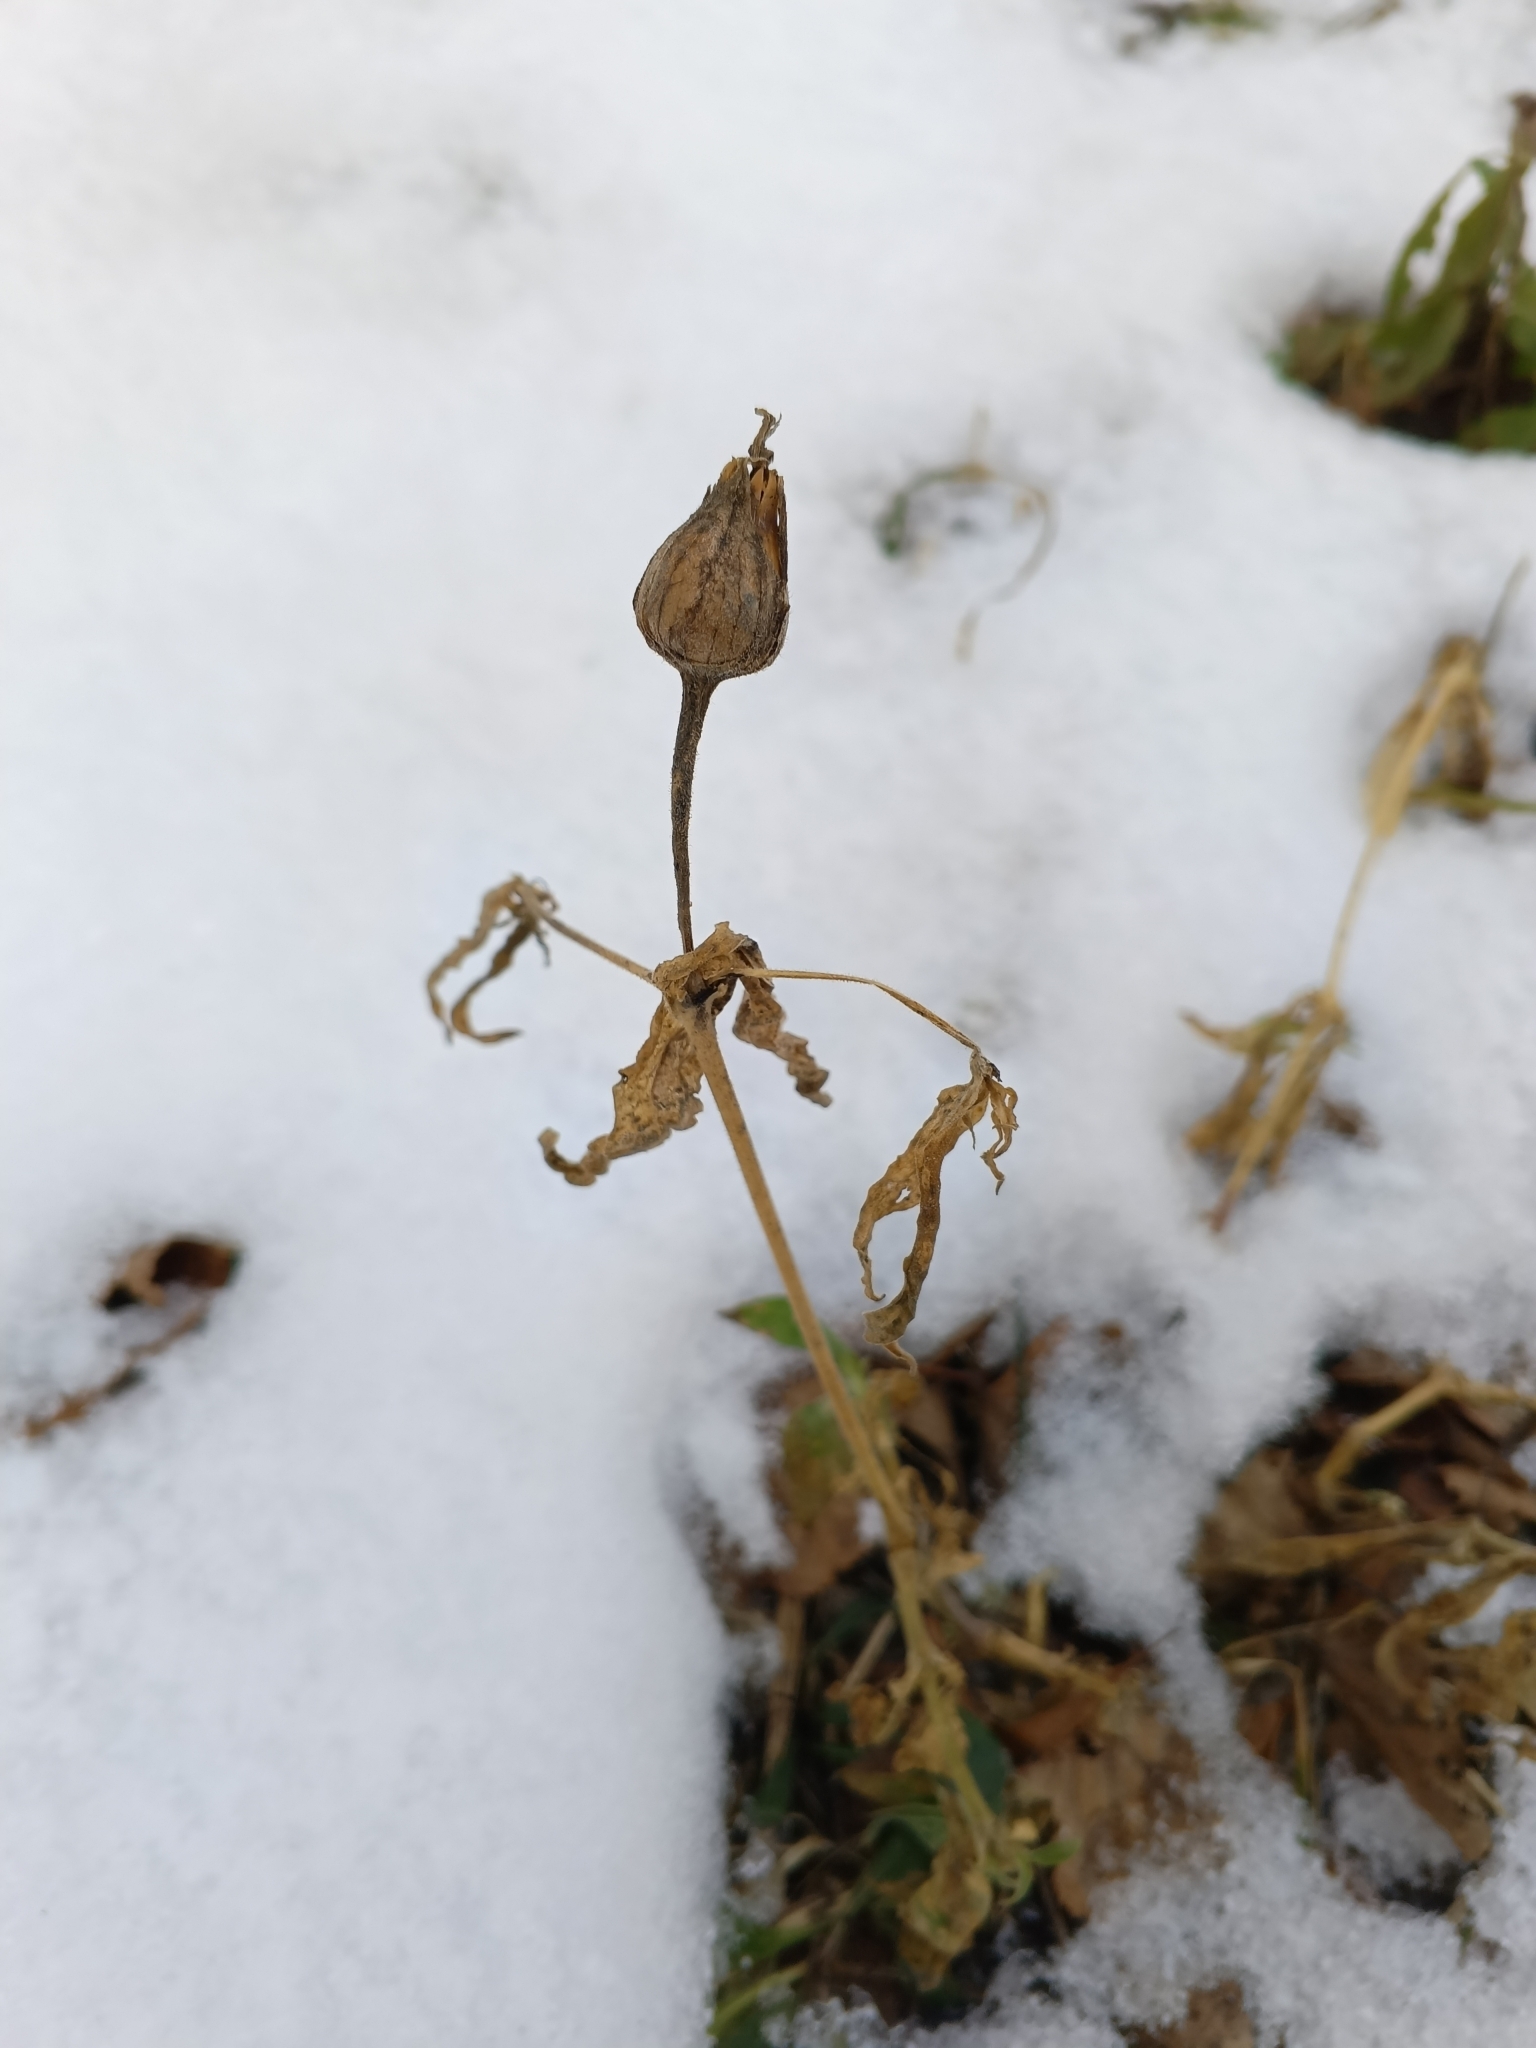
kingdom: Plantae
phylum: Tracheophyta
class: Magnoliopsida
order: Caryophyllales
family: Caryophyllaceae
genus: Silene
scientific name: Silene latifolia
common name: White campion
